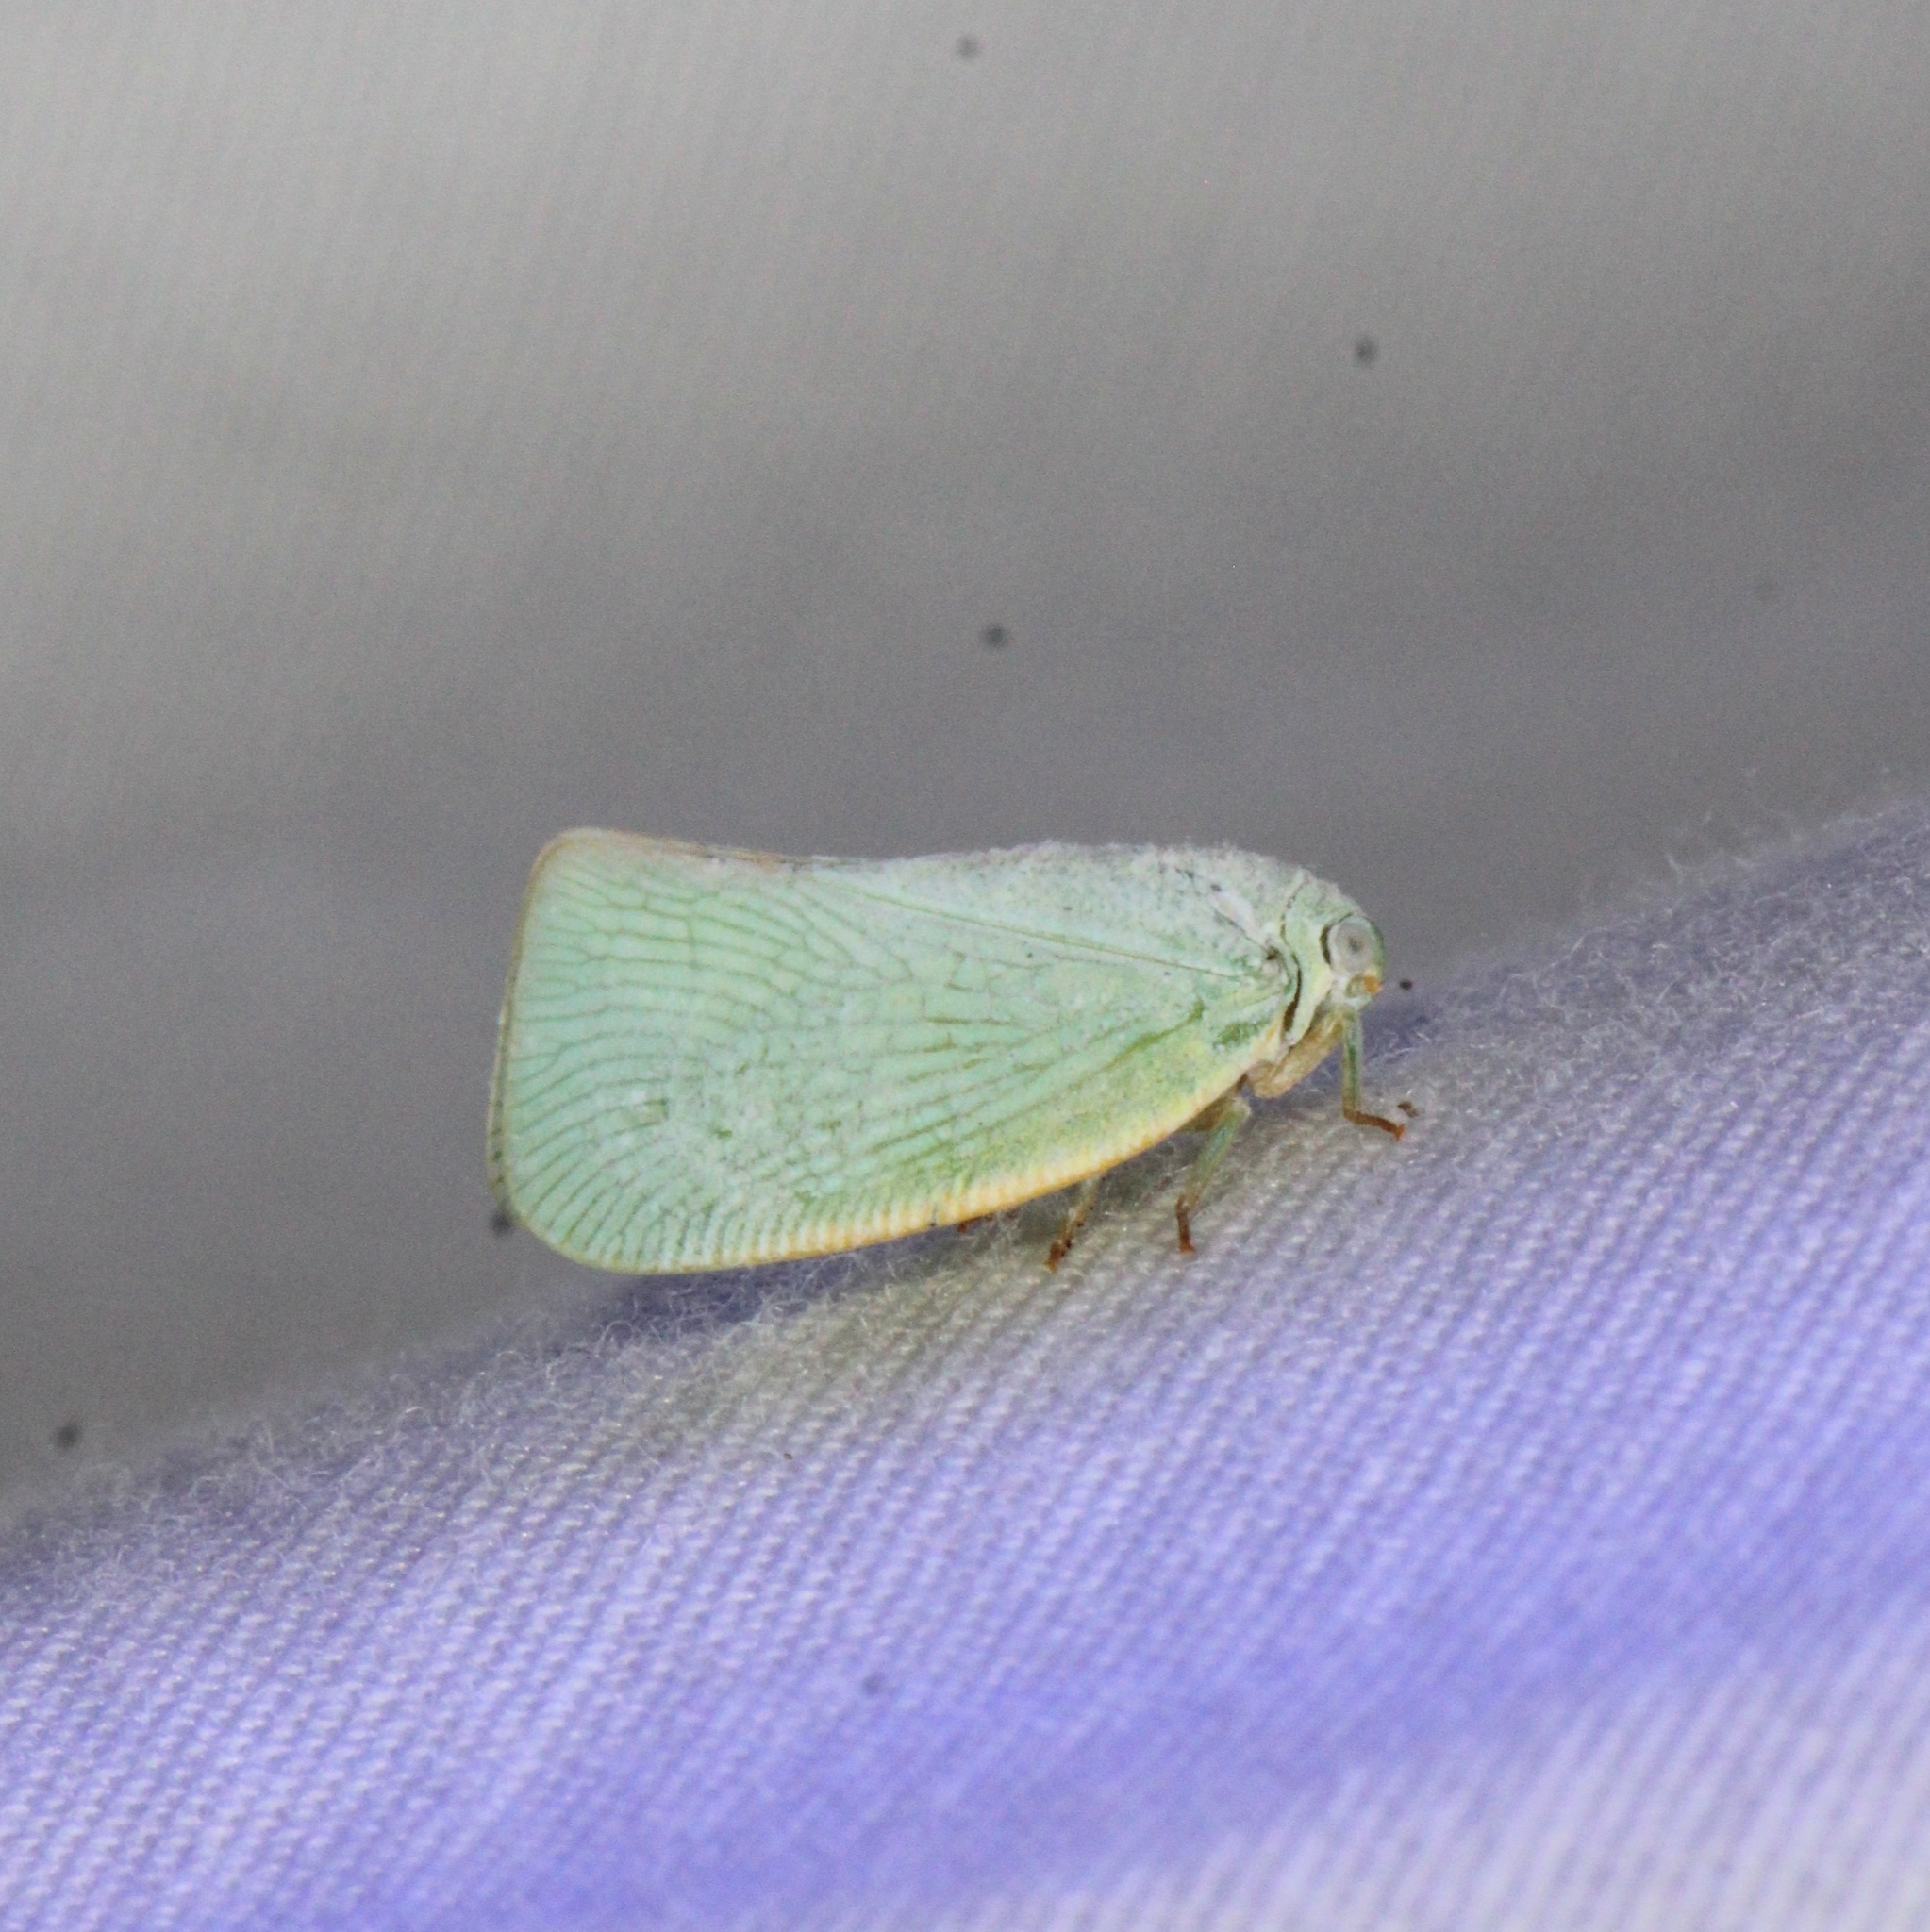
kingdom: Animalia
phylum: Arthropoda
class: Insecta
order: Hemiptera
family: Flatidae
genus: Flatormenis
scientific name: Flatormenis proxima
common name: Northern flatid planthopper
